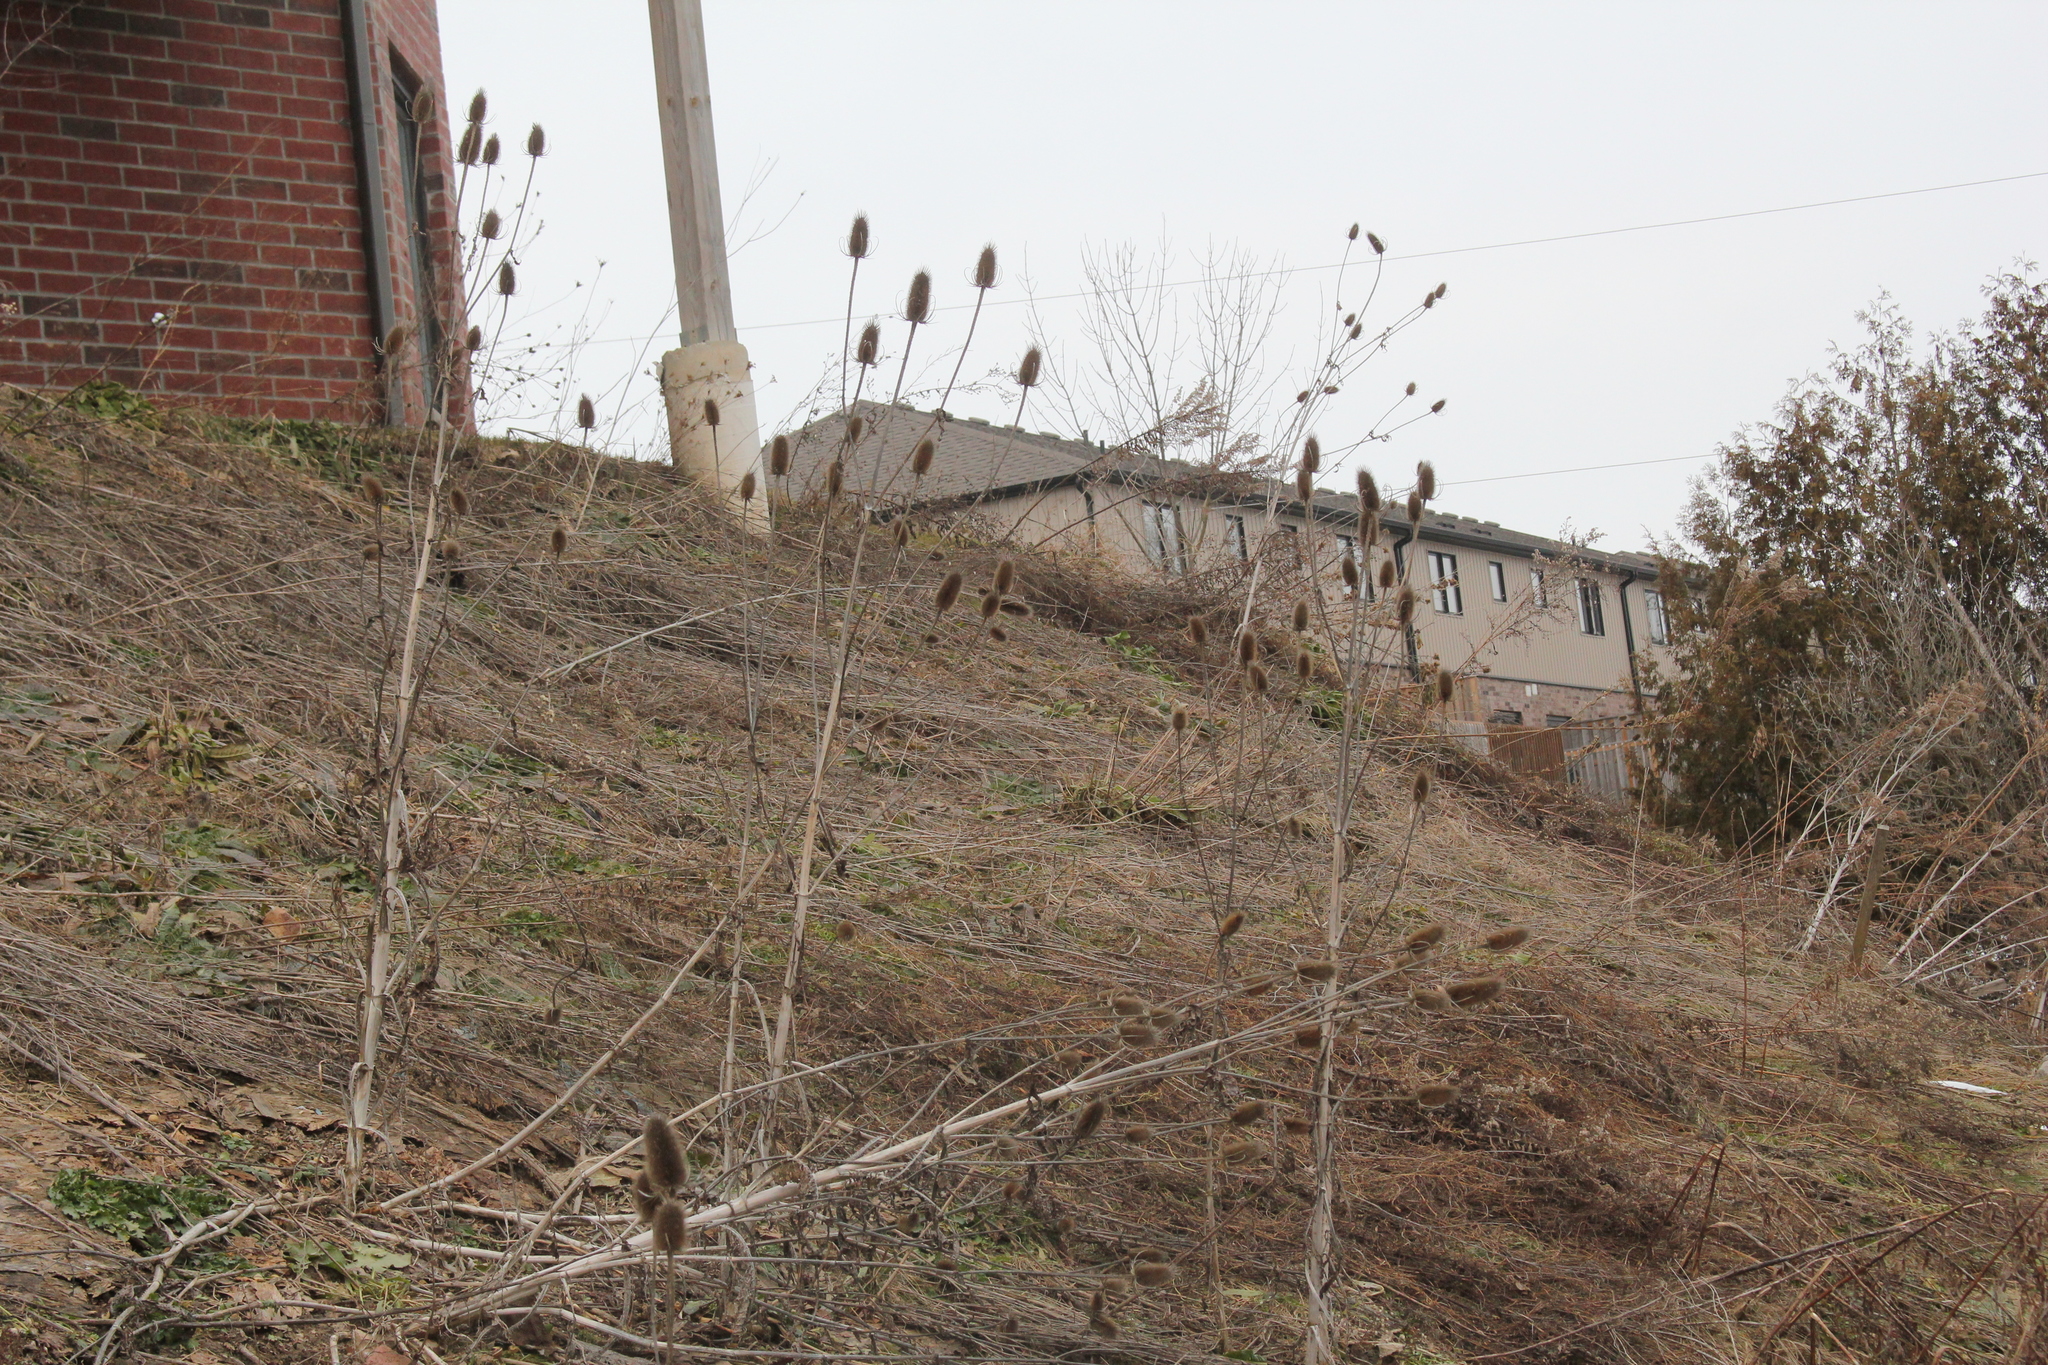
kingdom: Plantae
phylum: Tracheophyta
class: Magnoliopsida
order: Dipsacales
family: Caprifoliaceae
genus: Dipsacus
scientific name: Dipsacus fullonum
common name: Teasel
